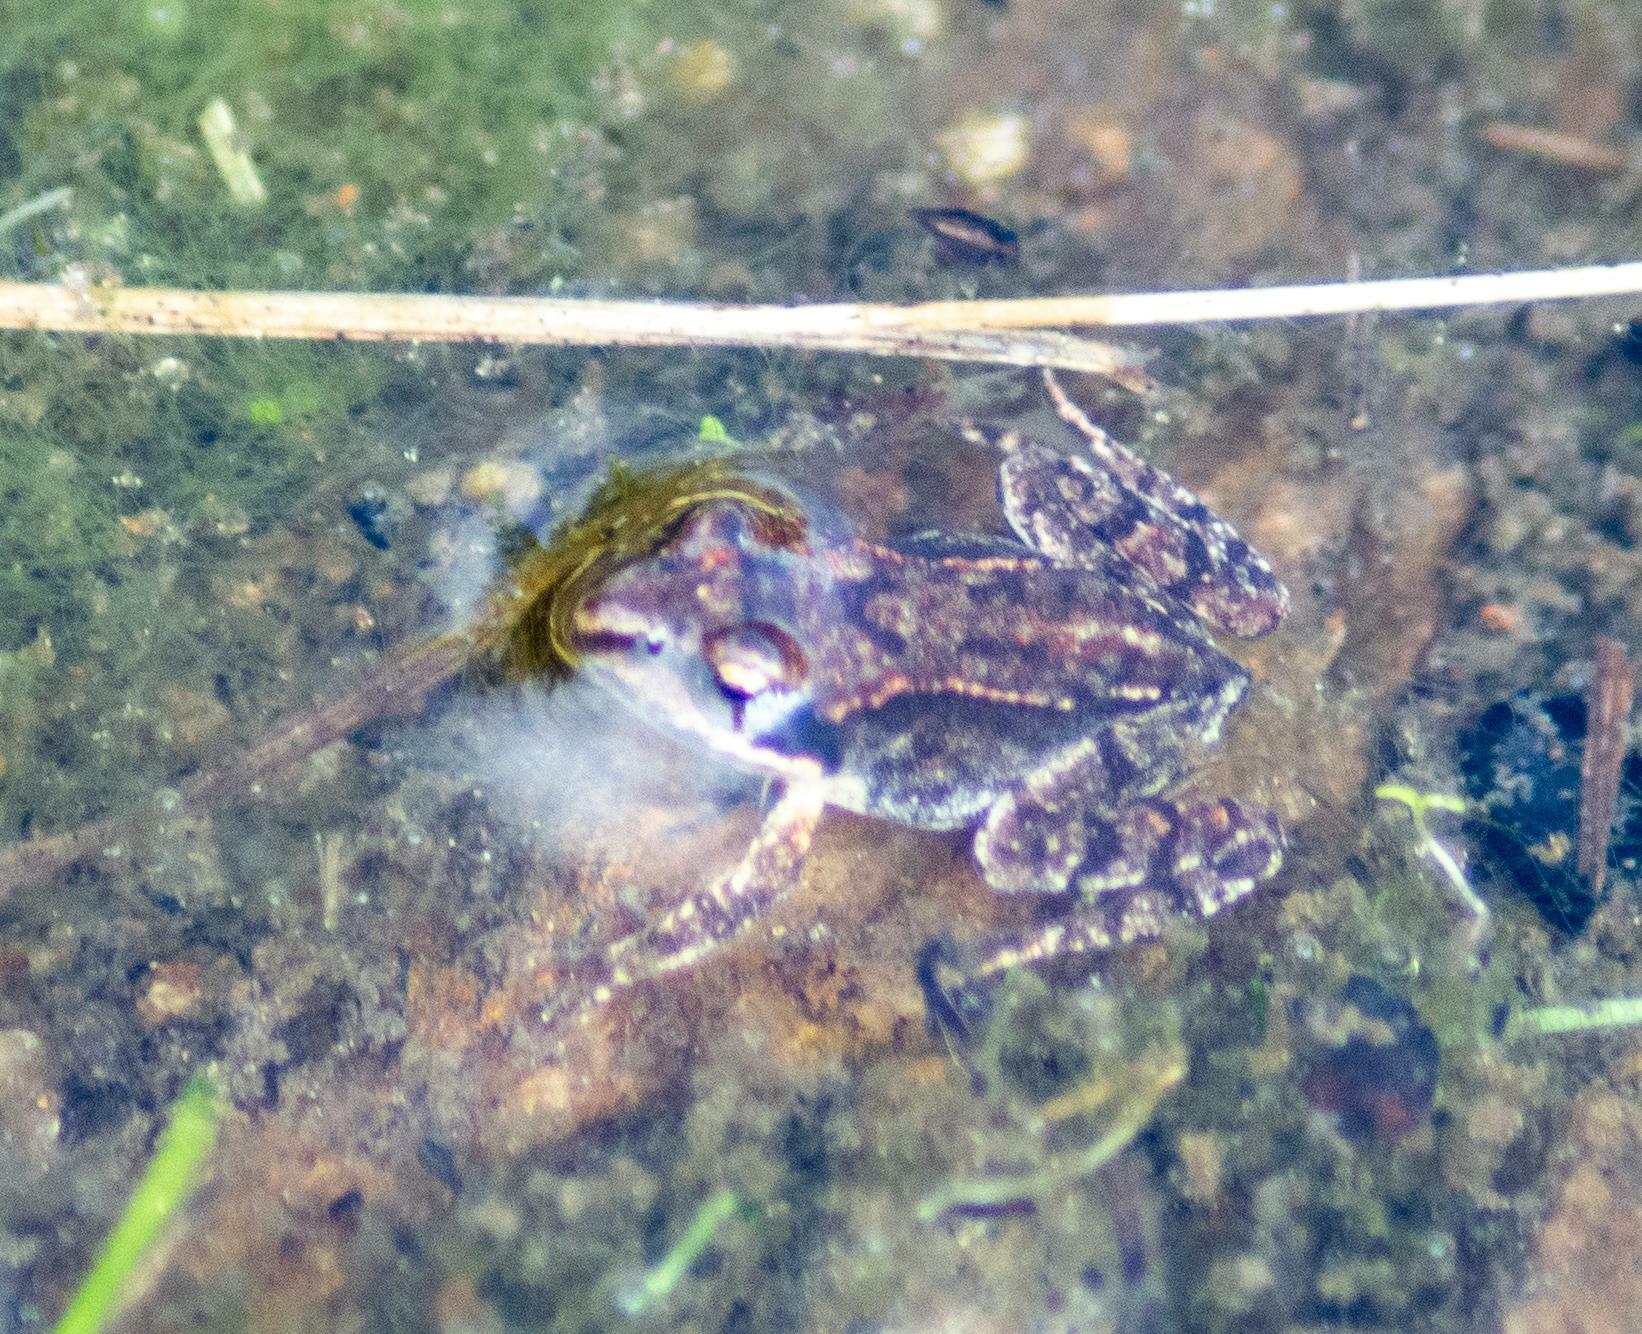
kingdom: Animalia
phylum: Chordata
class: Amphibia
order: Anura
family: Ranidae
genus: Rana
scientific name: Rana temporaria
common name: Common frog
